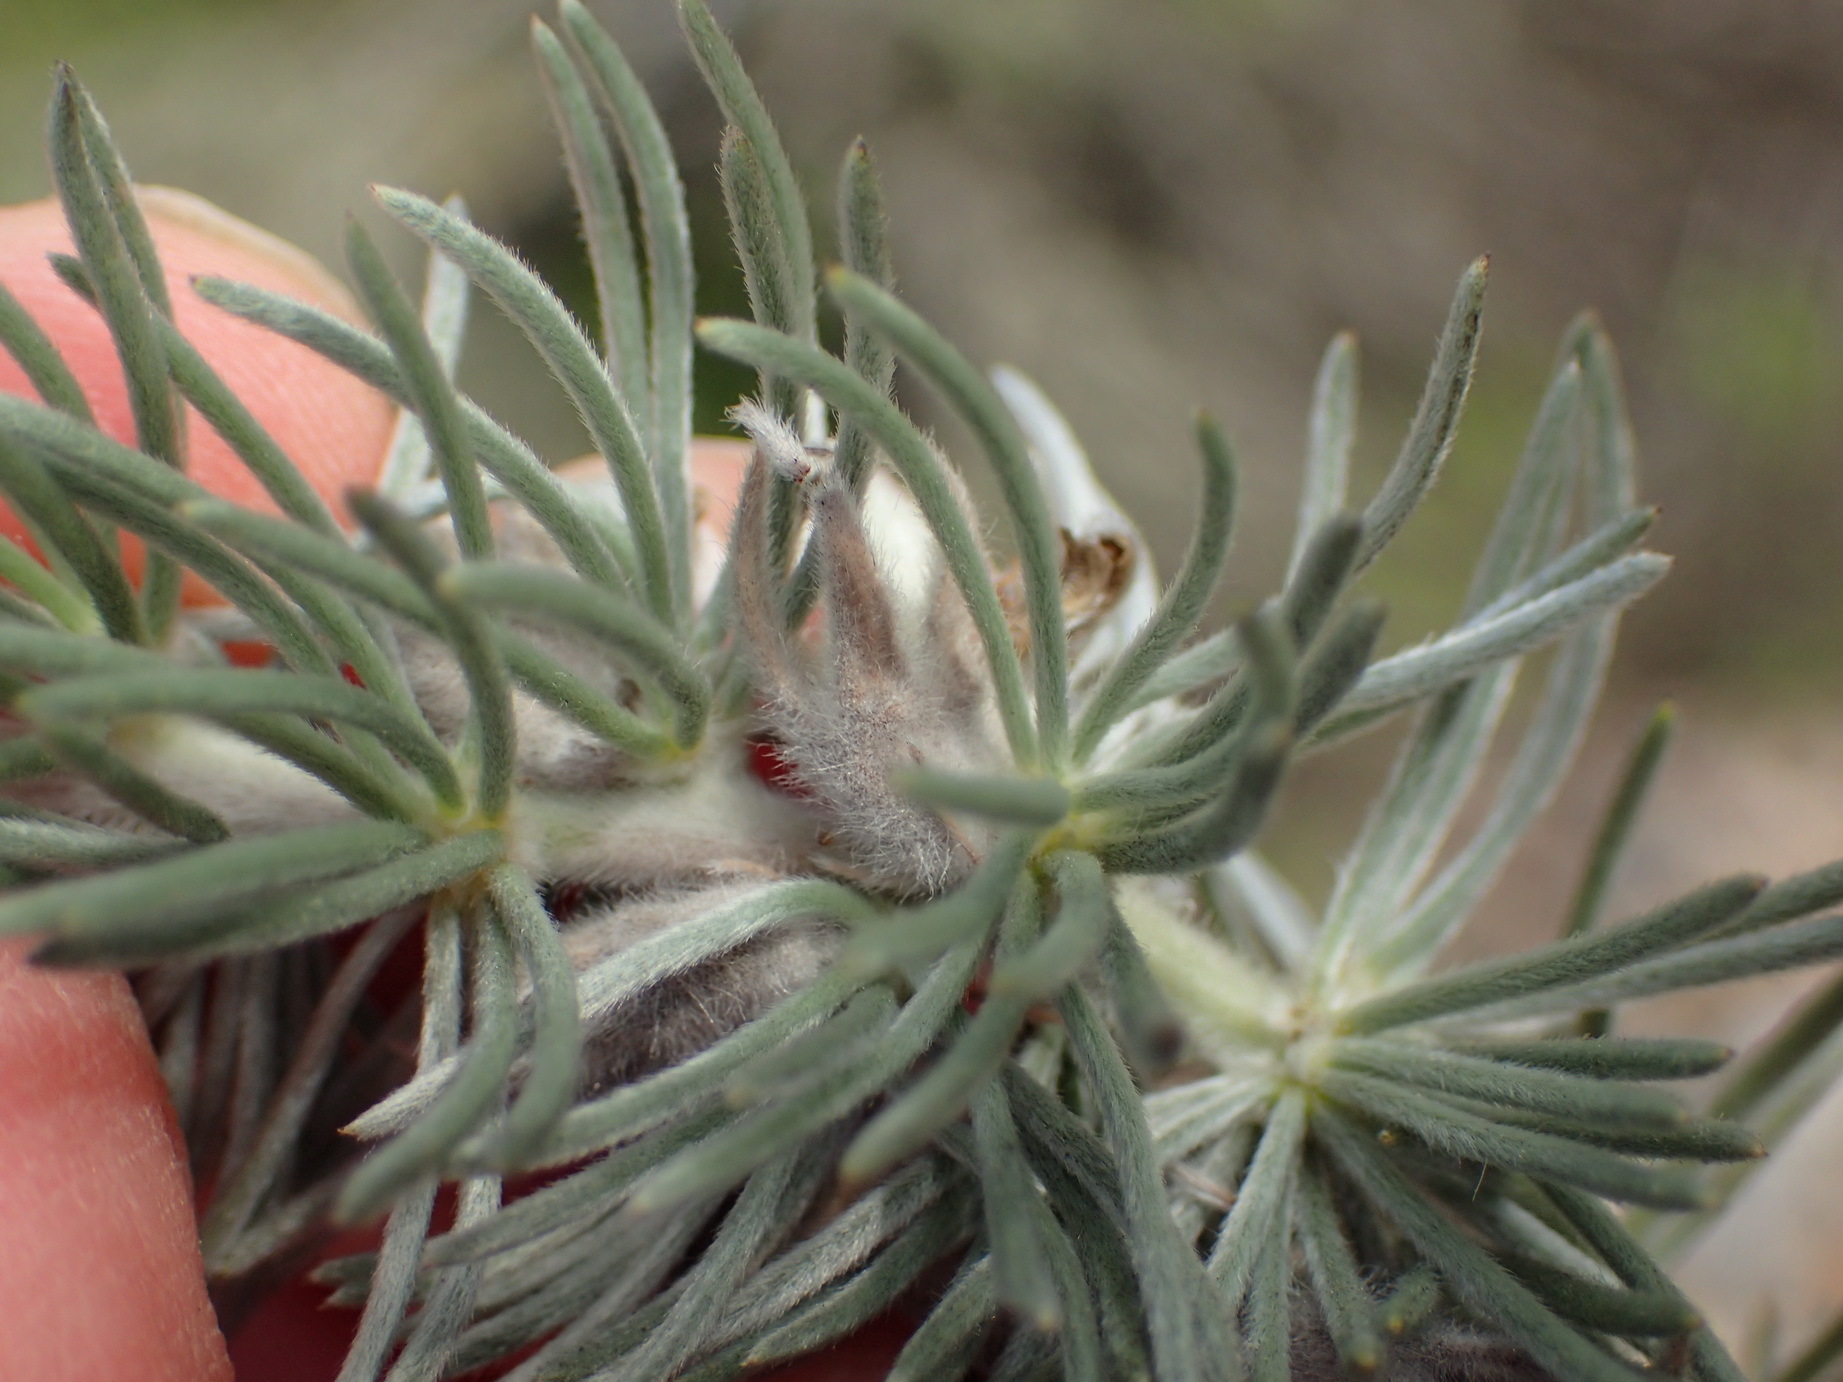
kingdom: Plantae
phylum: Tracheophyta
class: Magnoliopsida
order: Fabales
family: Fabaceae
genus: Aspalathus
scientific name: Aspalathus kougaensis
